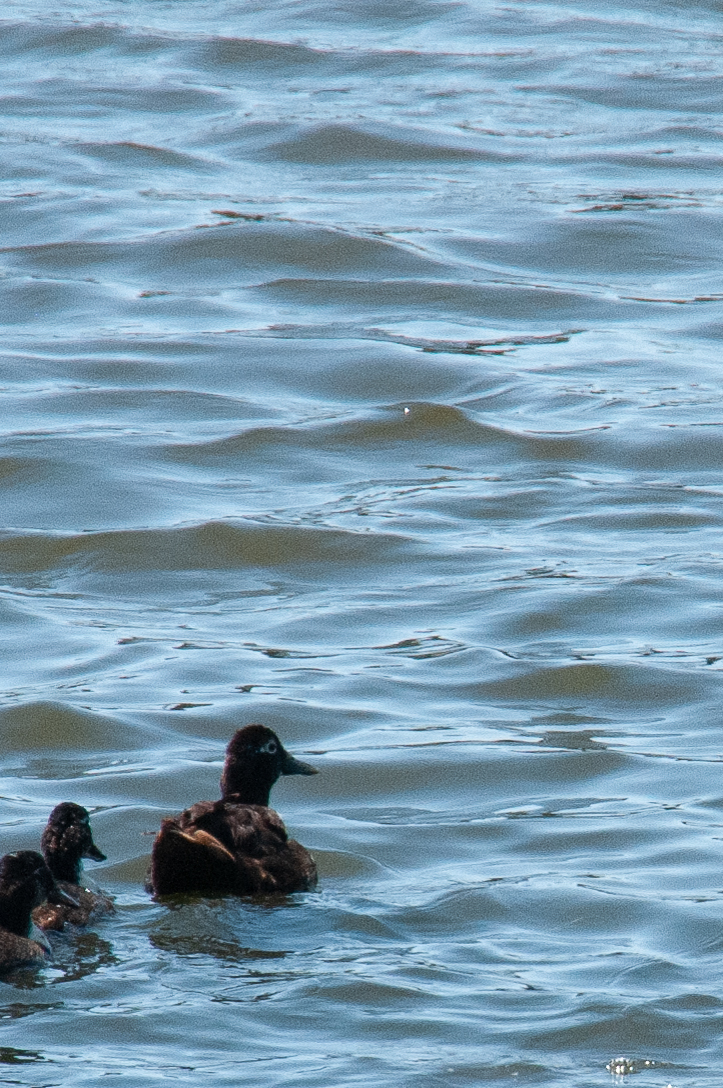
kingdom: Animalia
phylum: Chordata
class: Aves
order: Anseriformes
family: Anatidae
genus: Anas
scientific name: Anas platyrhynchos
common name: Mallard
